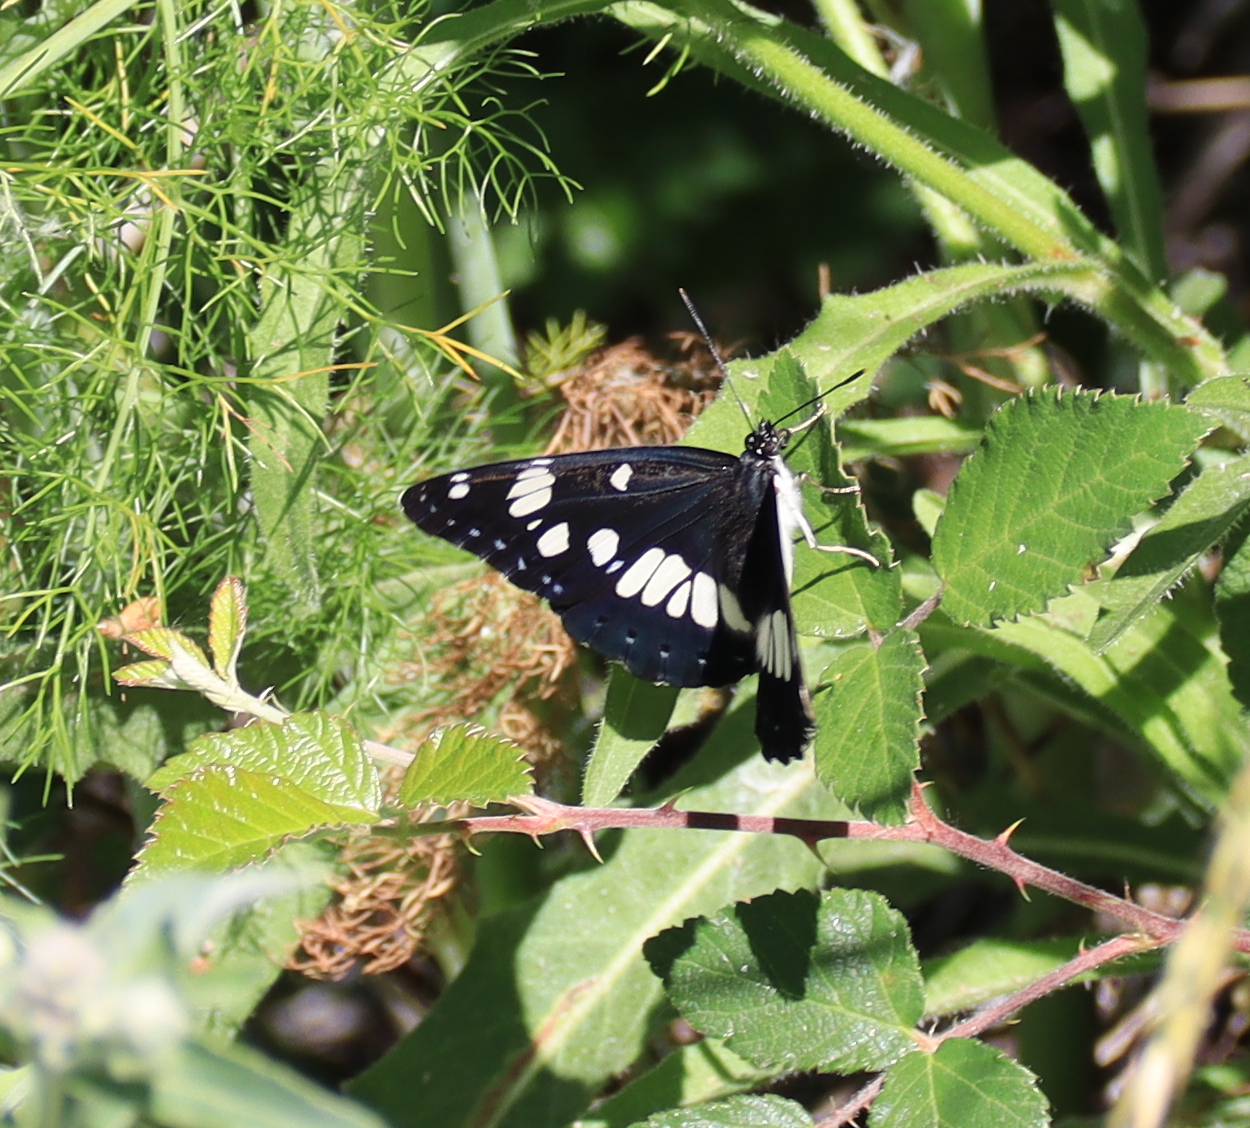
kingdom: Animalia
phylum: Arthropoda
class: Insecta
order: Lepidoptera
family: Nymphalidae
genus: Limenitis
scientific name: Limenitis reducta
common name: Southern white admiral
